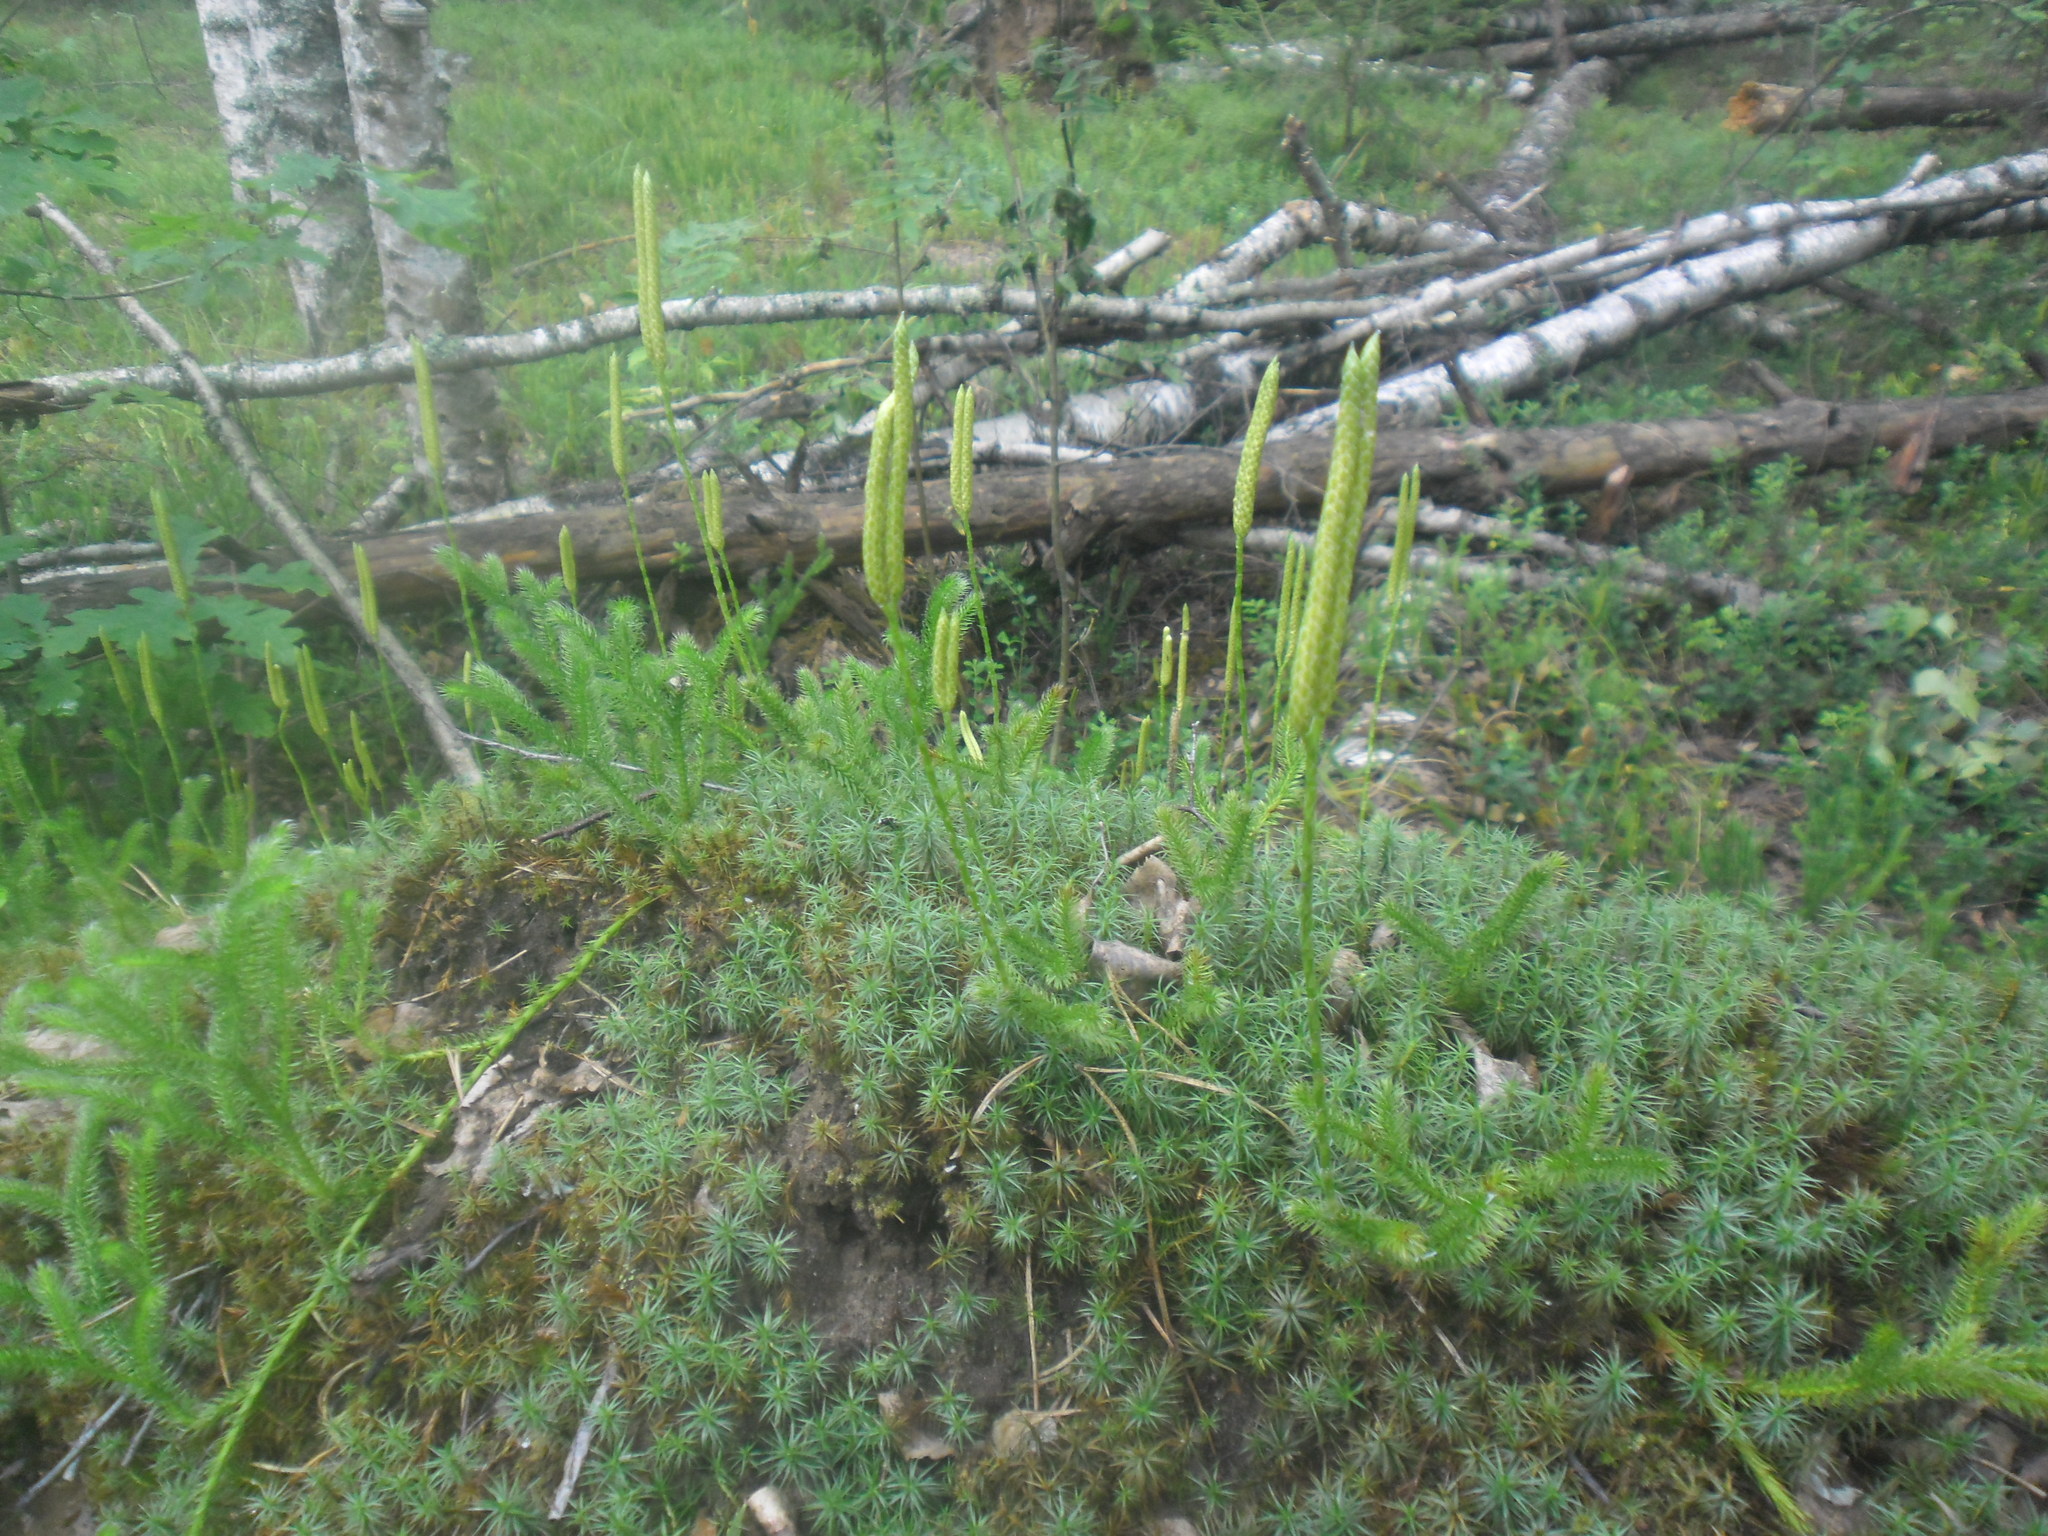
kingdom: Plantae
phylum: Tracheophyta
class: Lycopodiopsida
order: Lycopodiales
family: Lycopodiaceae
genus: Lycopodium
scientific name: Lycopodium clavatum
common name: Stag's-horn clubmoss
